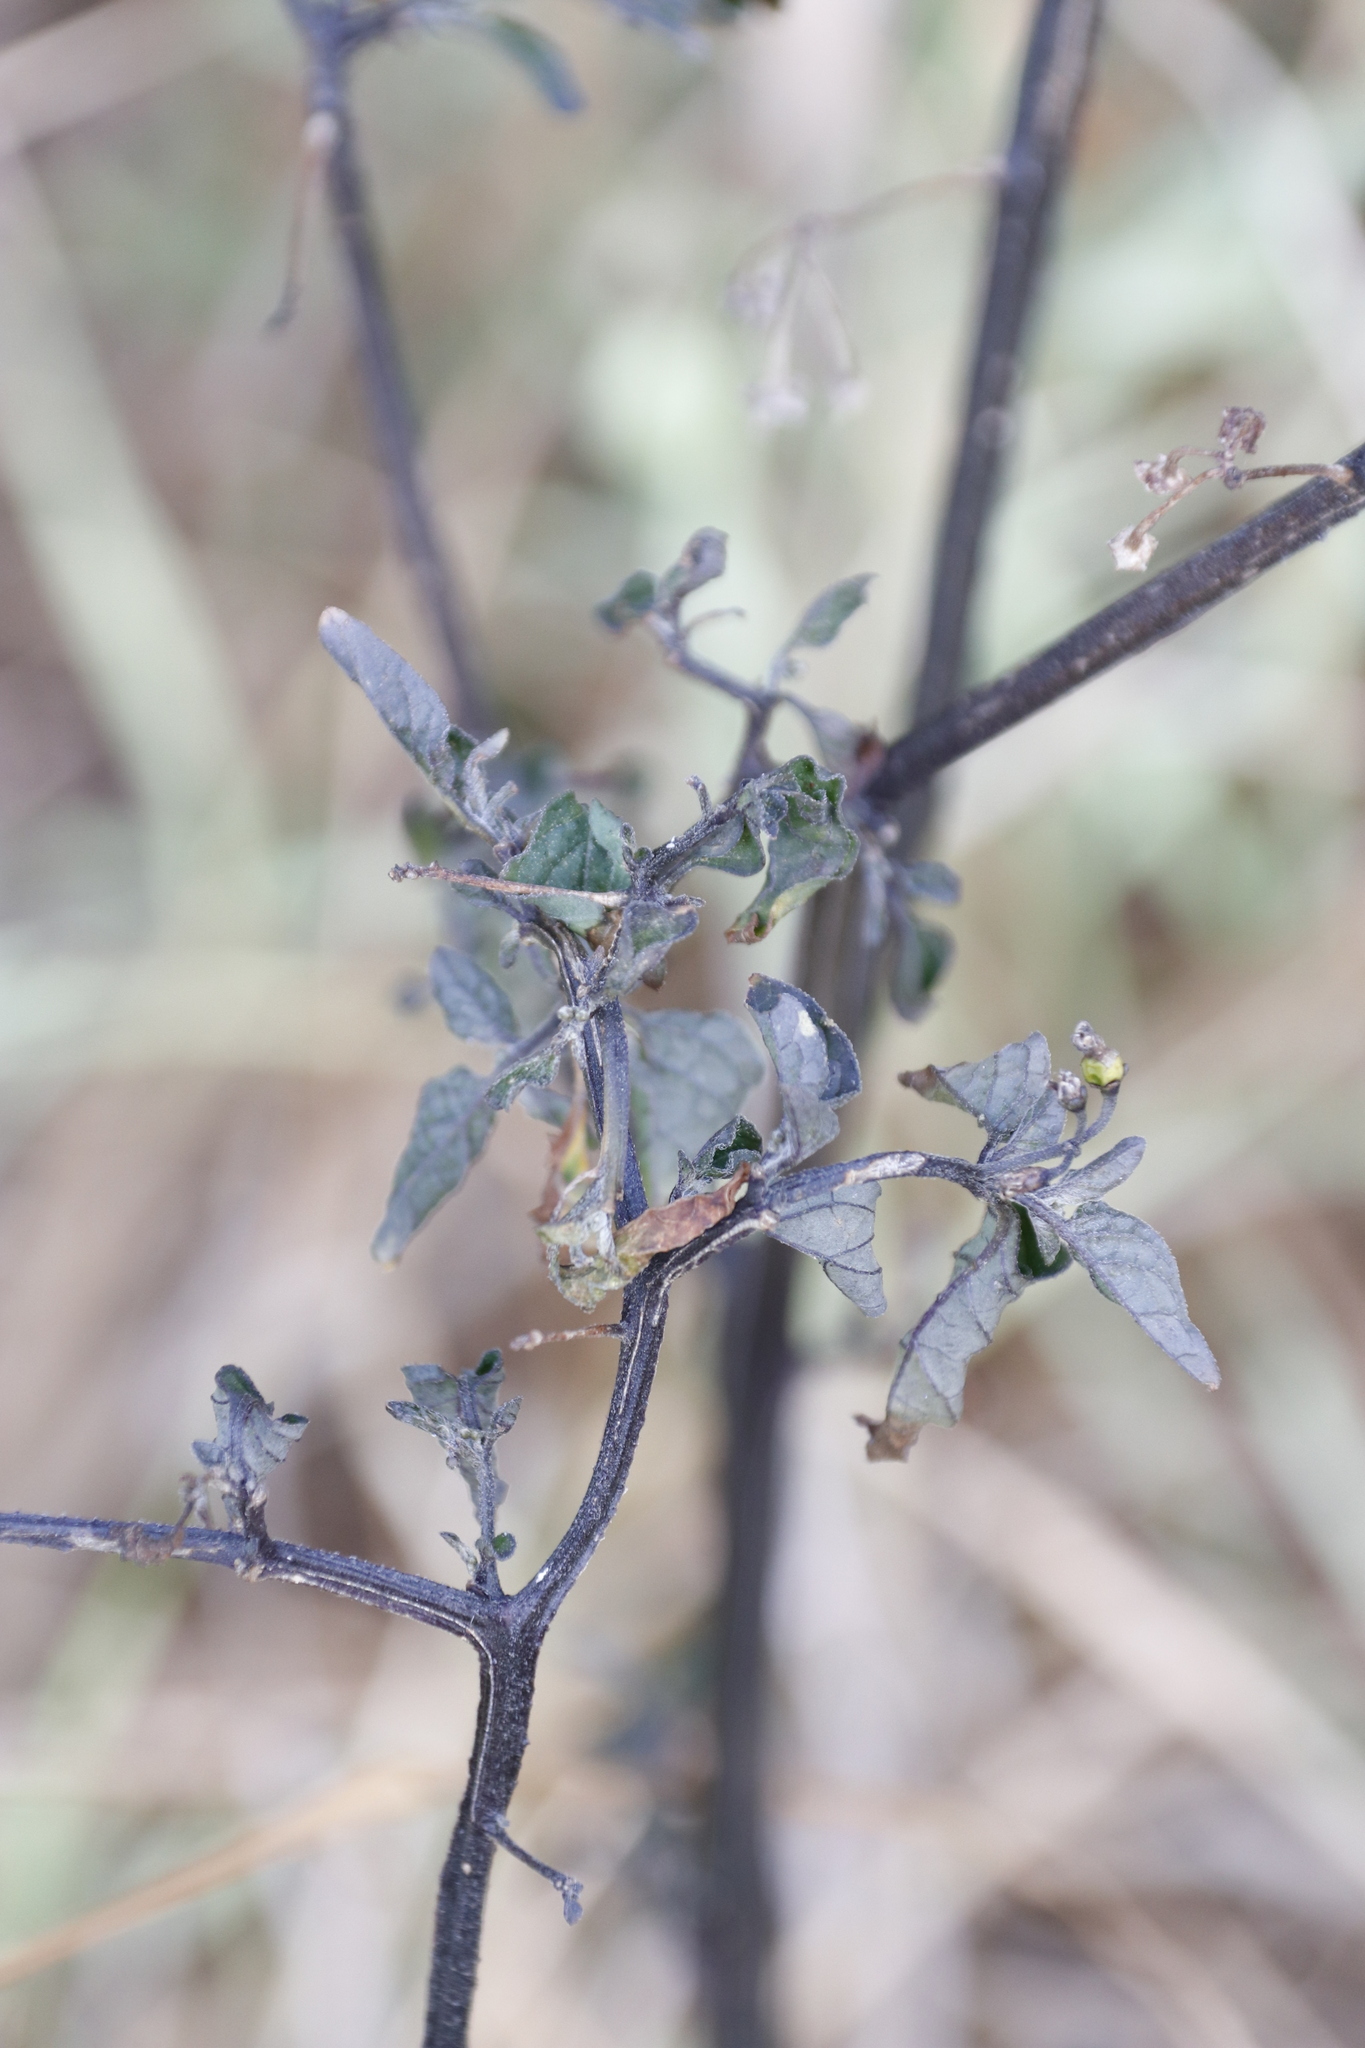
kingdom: Plantae
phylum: Tracheophyta
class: Magnoliopsida
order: Solanales
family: Solanaceae
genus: Solanum
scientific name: Solanum nigrum
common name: Black nightshade
